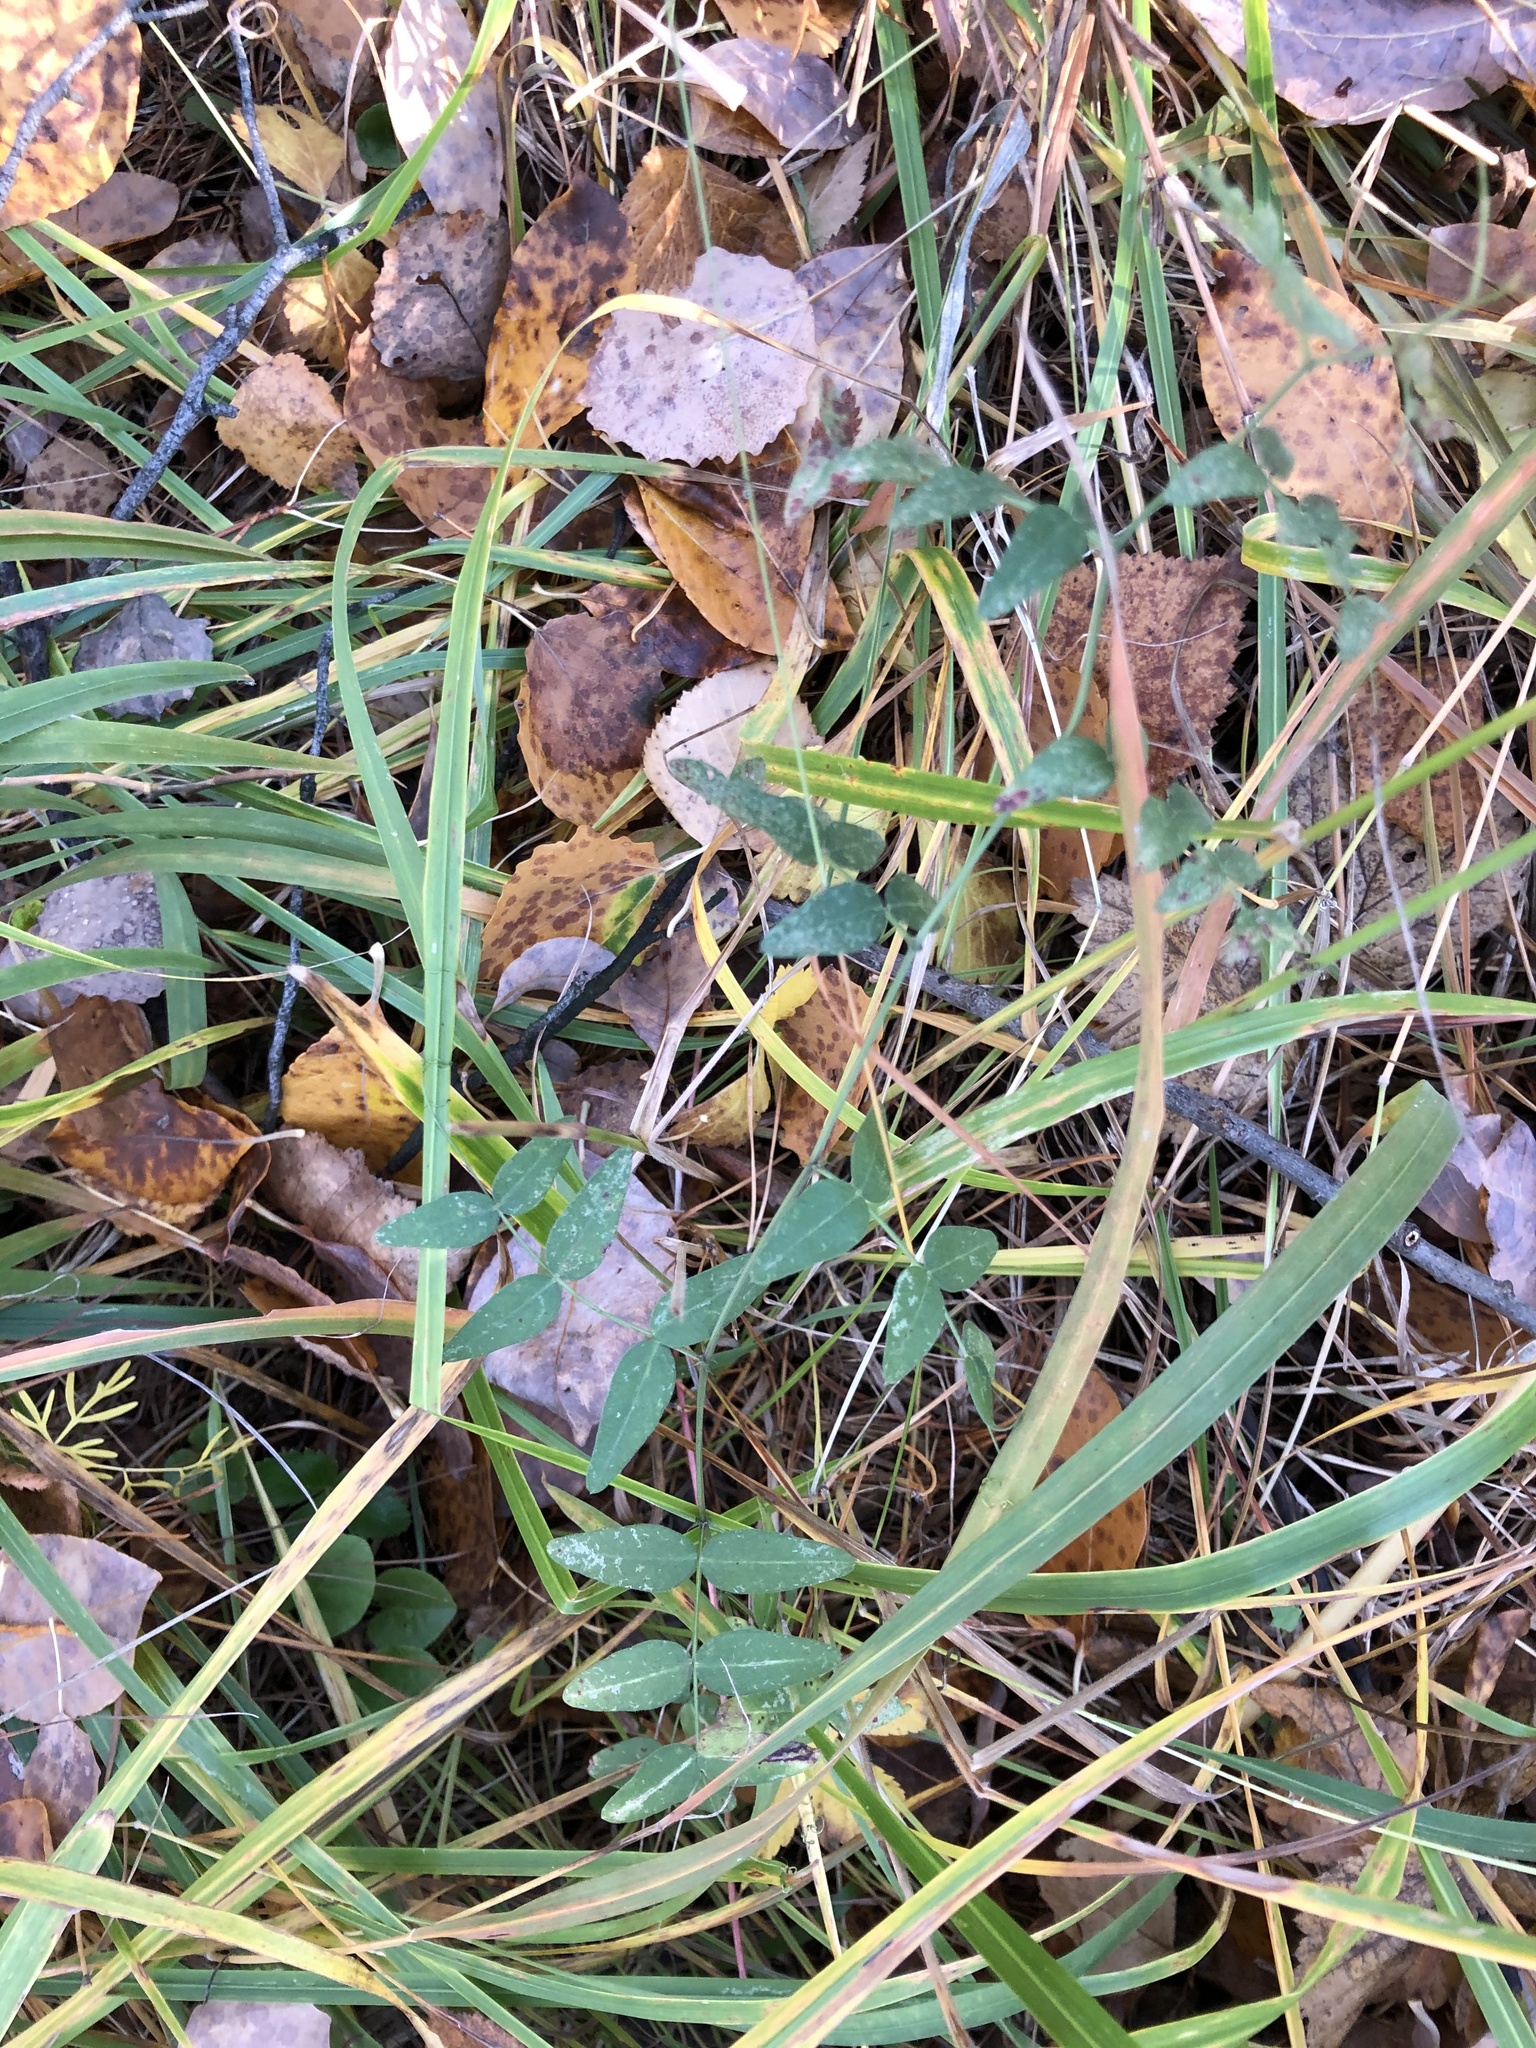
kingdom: Plantae
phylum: Tracheophyta
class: Magnoliopsida
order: Fabales
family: Fabaceae
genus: Vicia
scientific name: Vicia sepium
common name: Bush vetch
